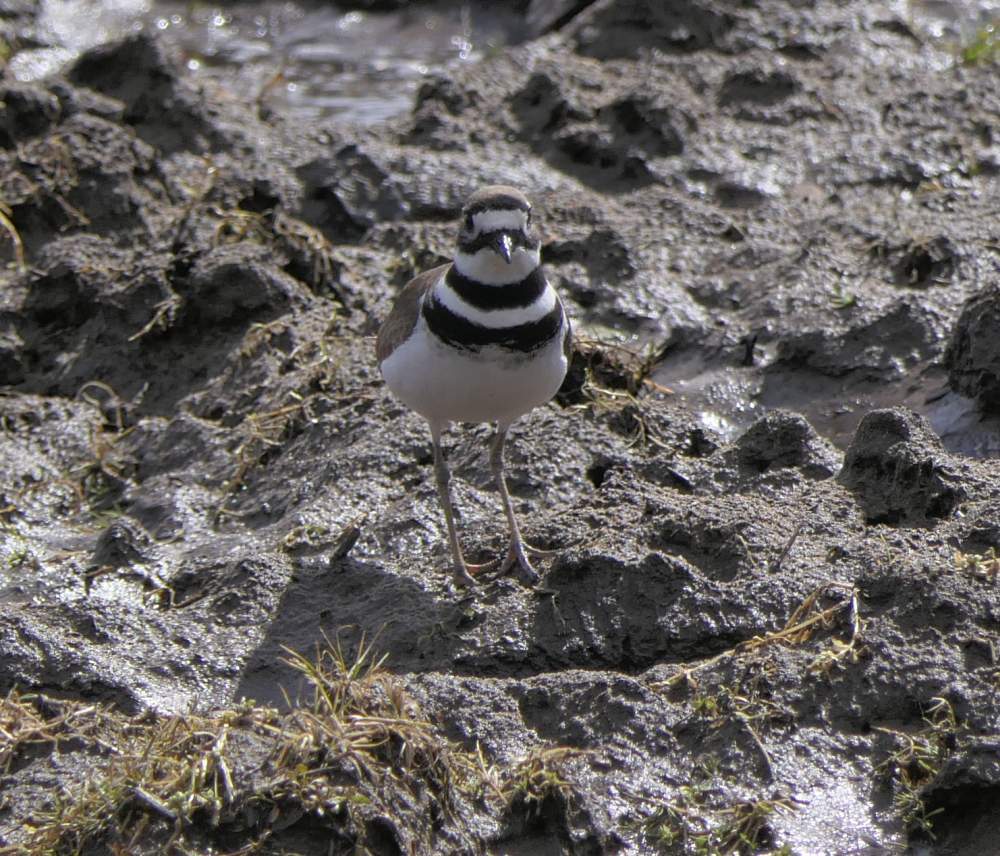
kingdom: Animalia
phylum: Chordata
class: Aves
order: Charadriiformes
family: Charadriidae
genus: Charadrius
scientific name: Charadrius vociferus
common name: Killdeer
